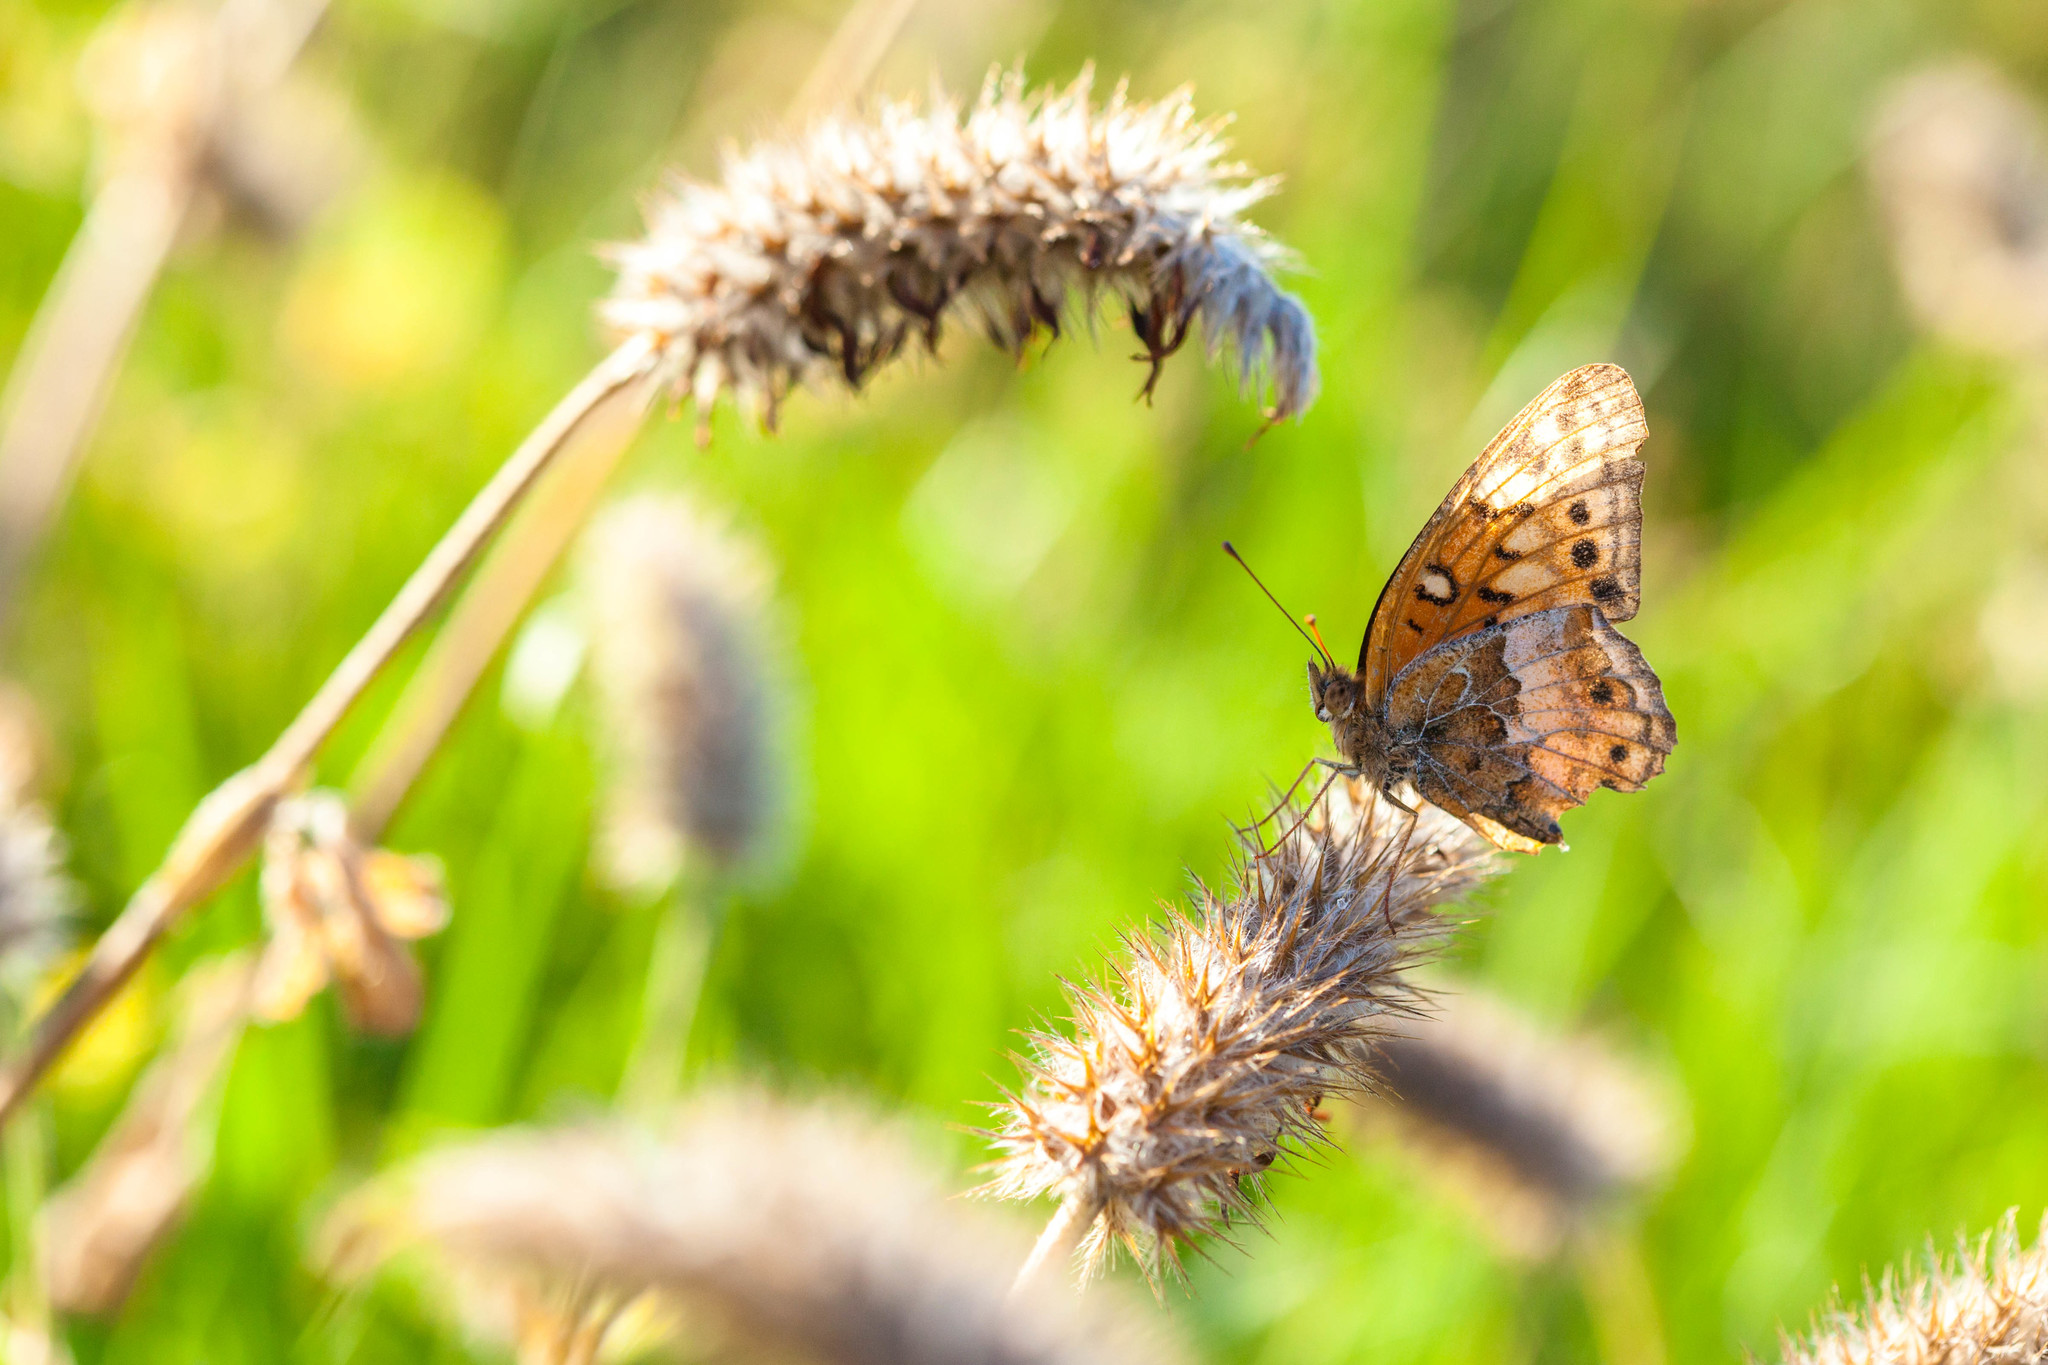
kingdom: Animalia
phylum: Arthropoda
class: Insecta
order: Lepidoptera
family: Nymphalidae
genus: Euptoieta
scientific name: Euptoieta claudia
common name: Variegated fritillary
